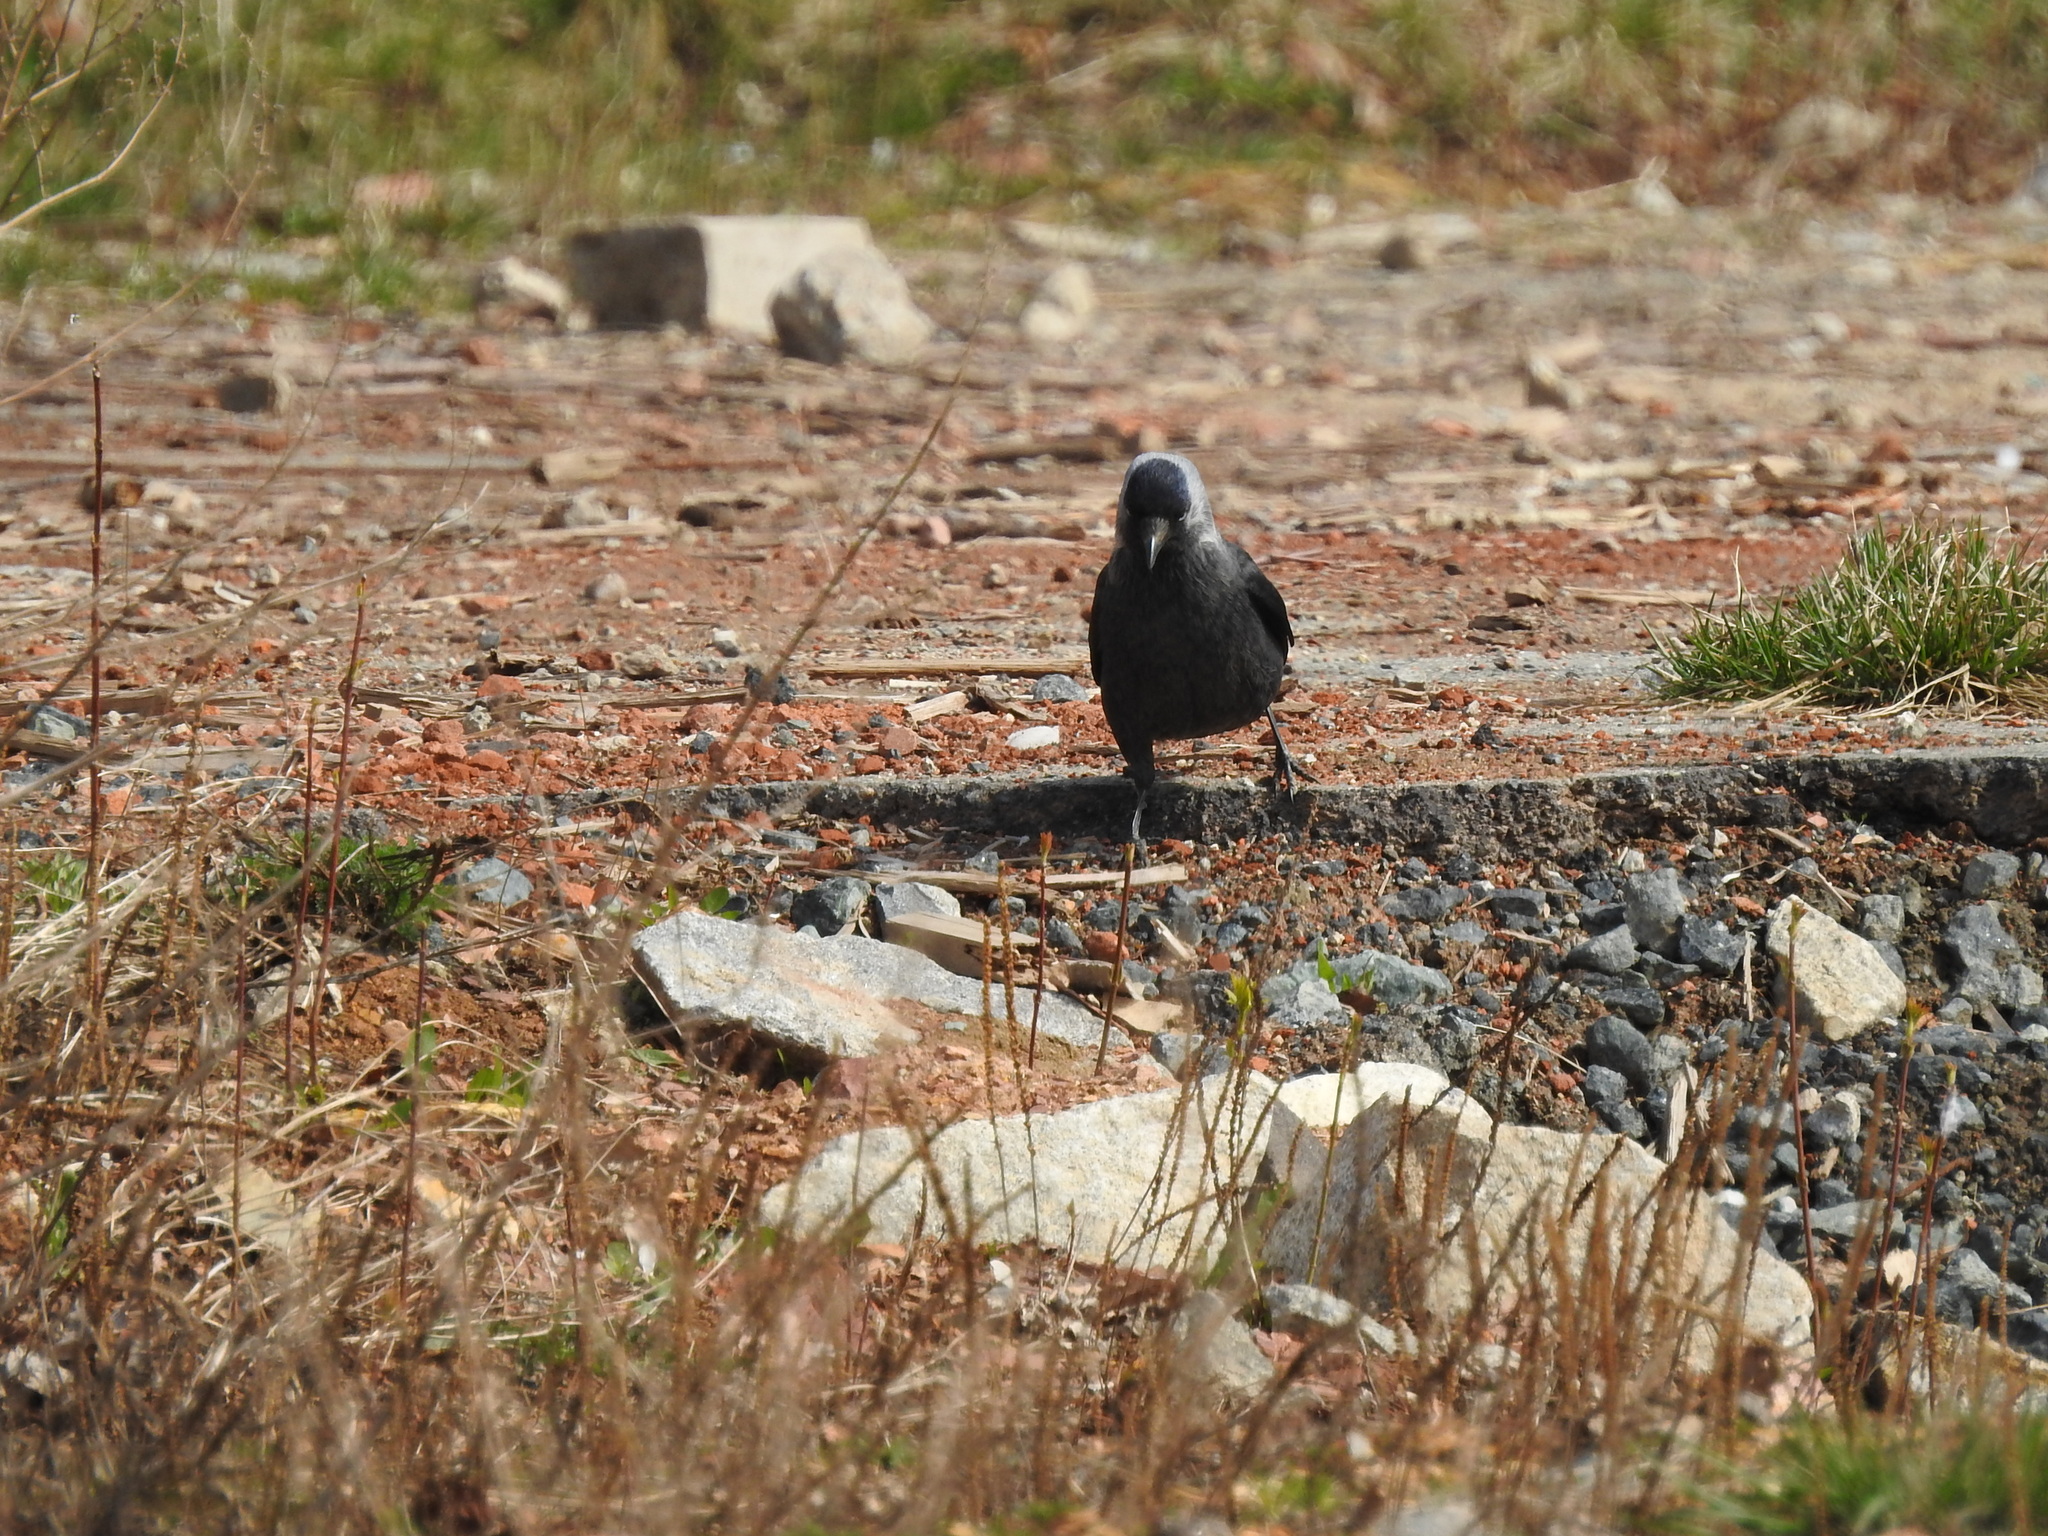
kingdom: Animalia
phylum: Chordata
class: Aves
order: Passeriformes
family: Corvidae
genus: Coloeus
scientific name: Coloeus monedula
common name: Western jackdaw
